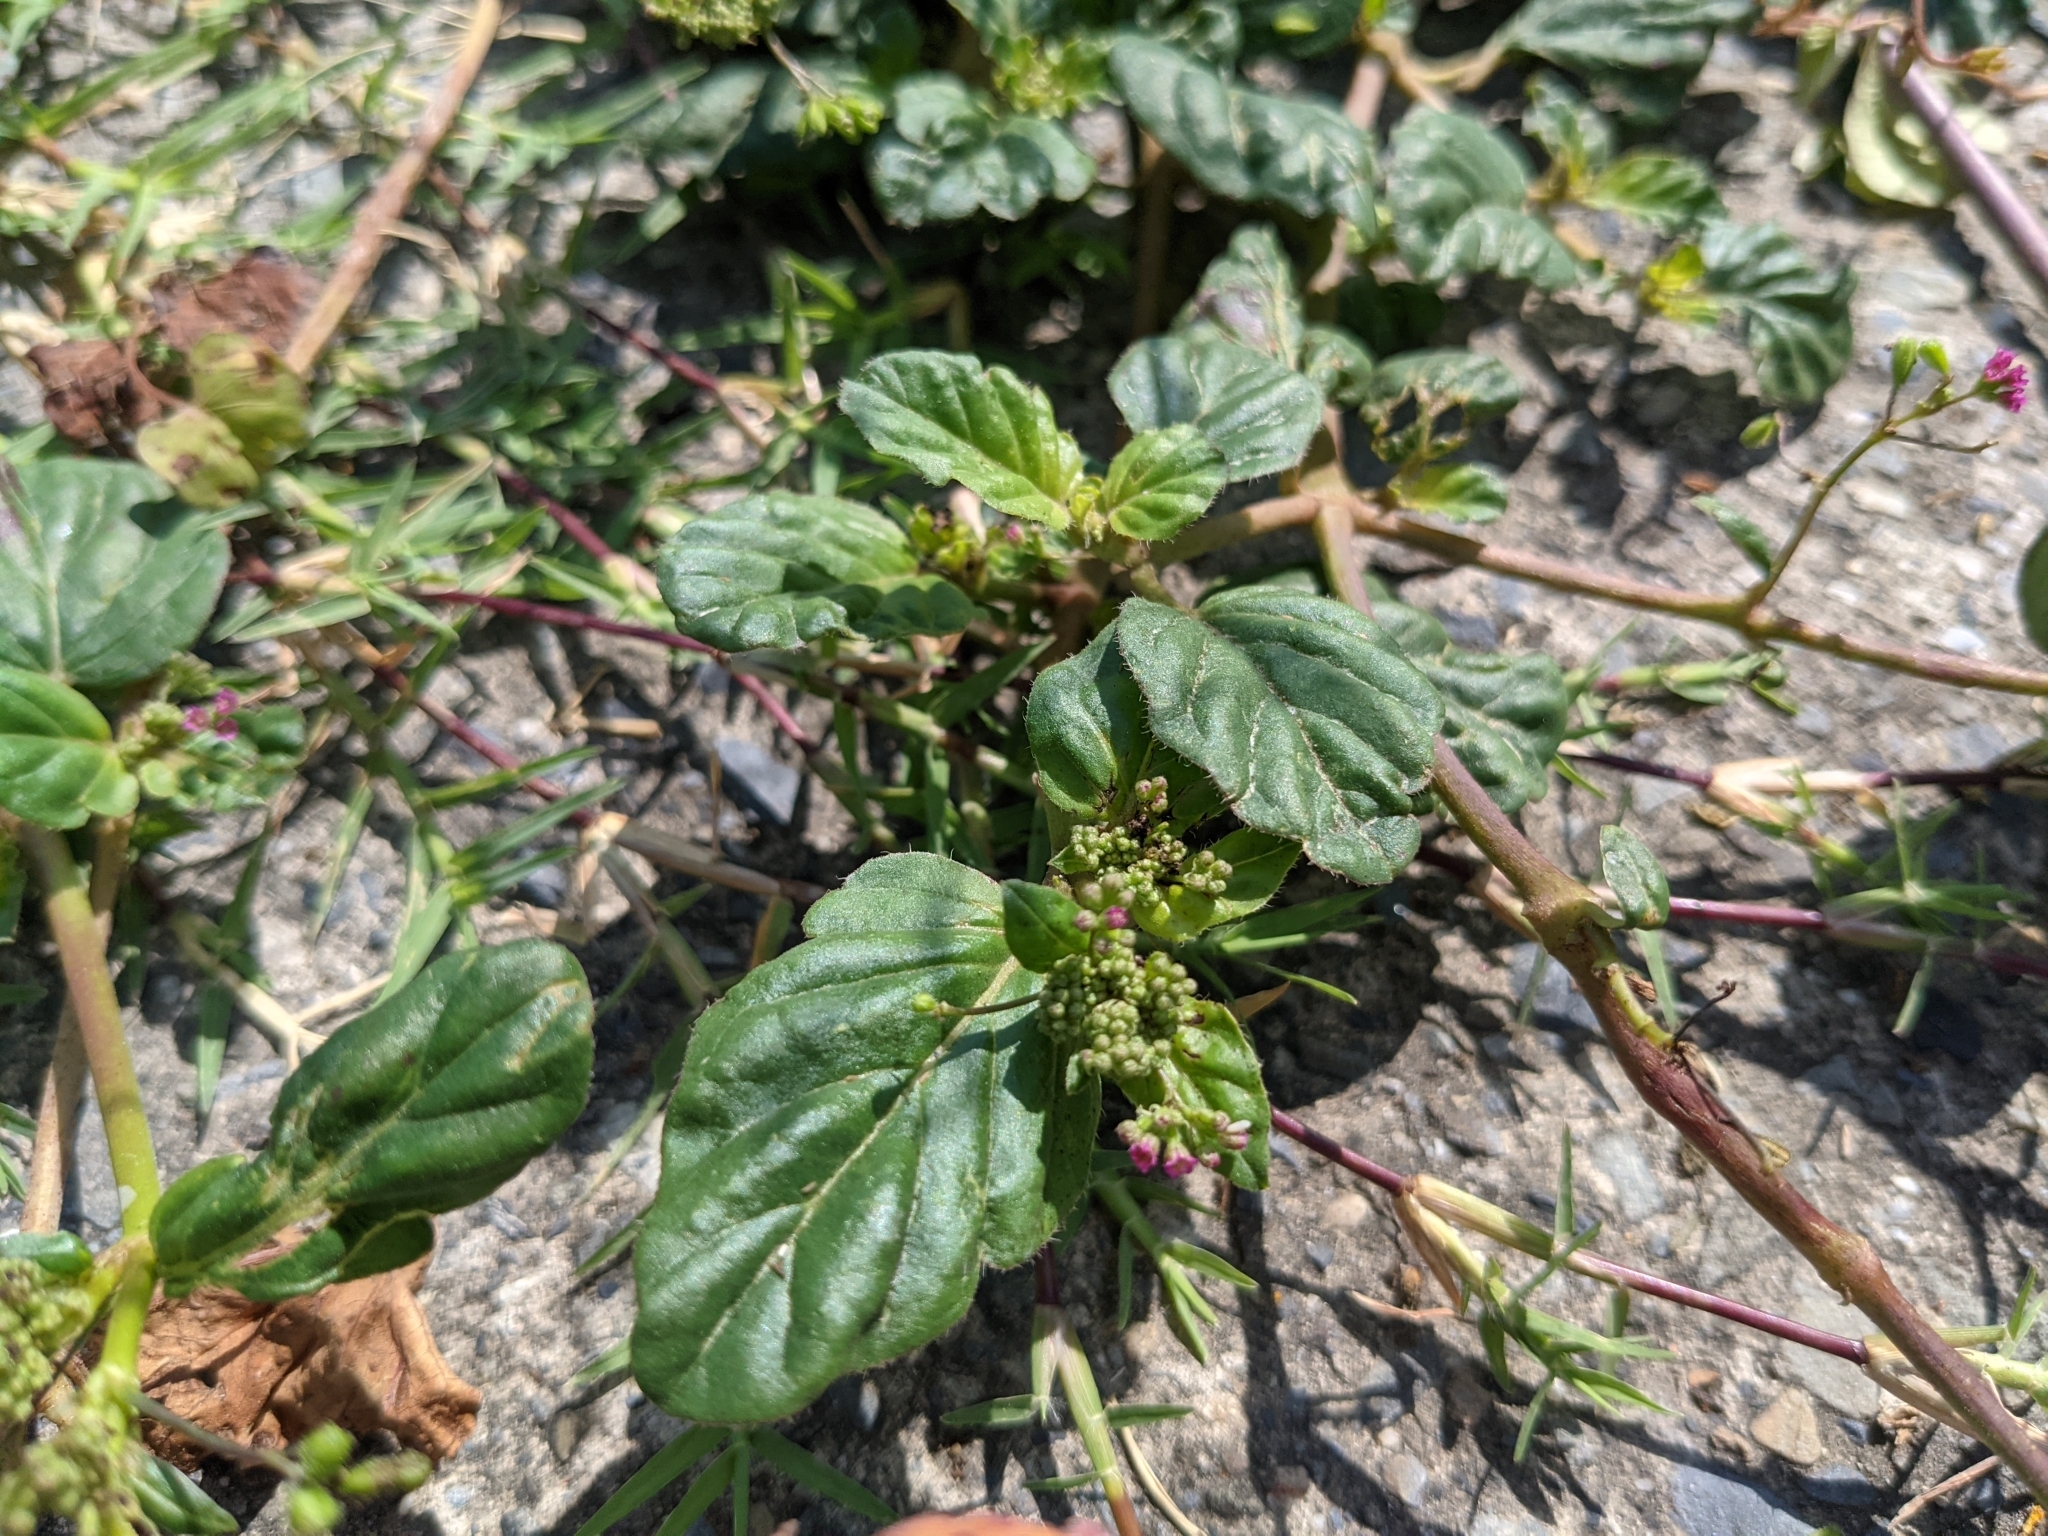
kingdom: Plantae
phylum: Tracheophyta
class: Magnoliopsida
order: Caryophyllales
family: Nyctaginaceae
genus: Boerhavia
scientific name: Boerhavia coccinea
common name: Scarlet spiderling
